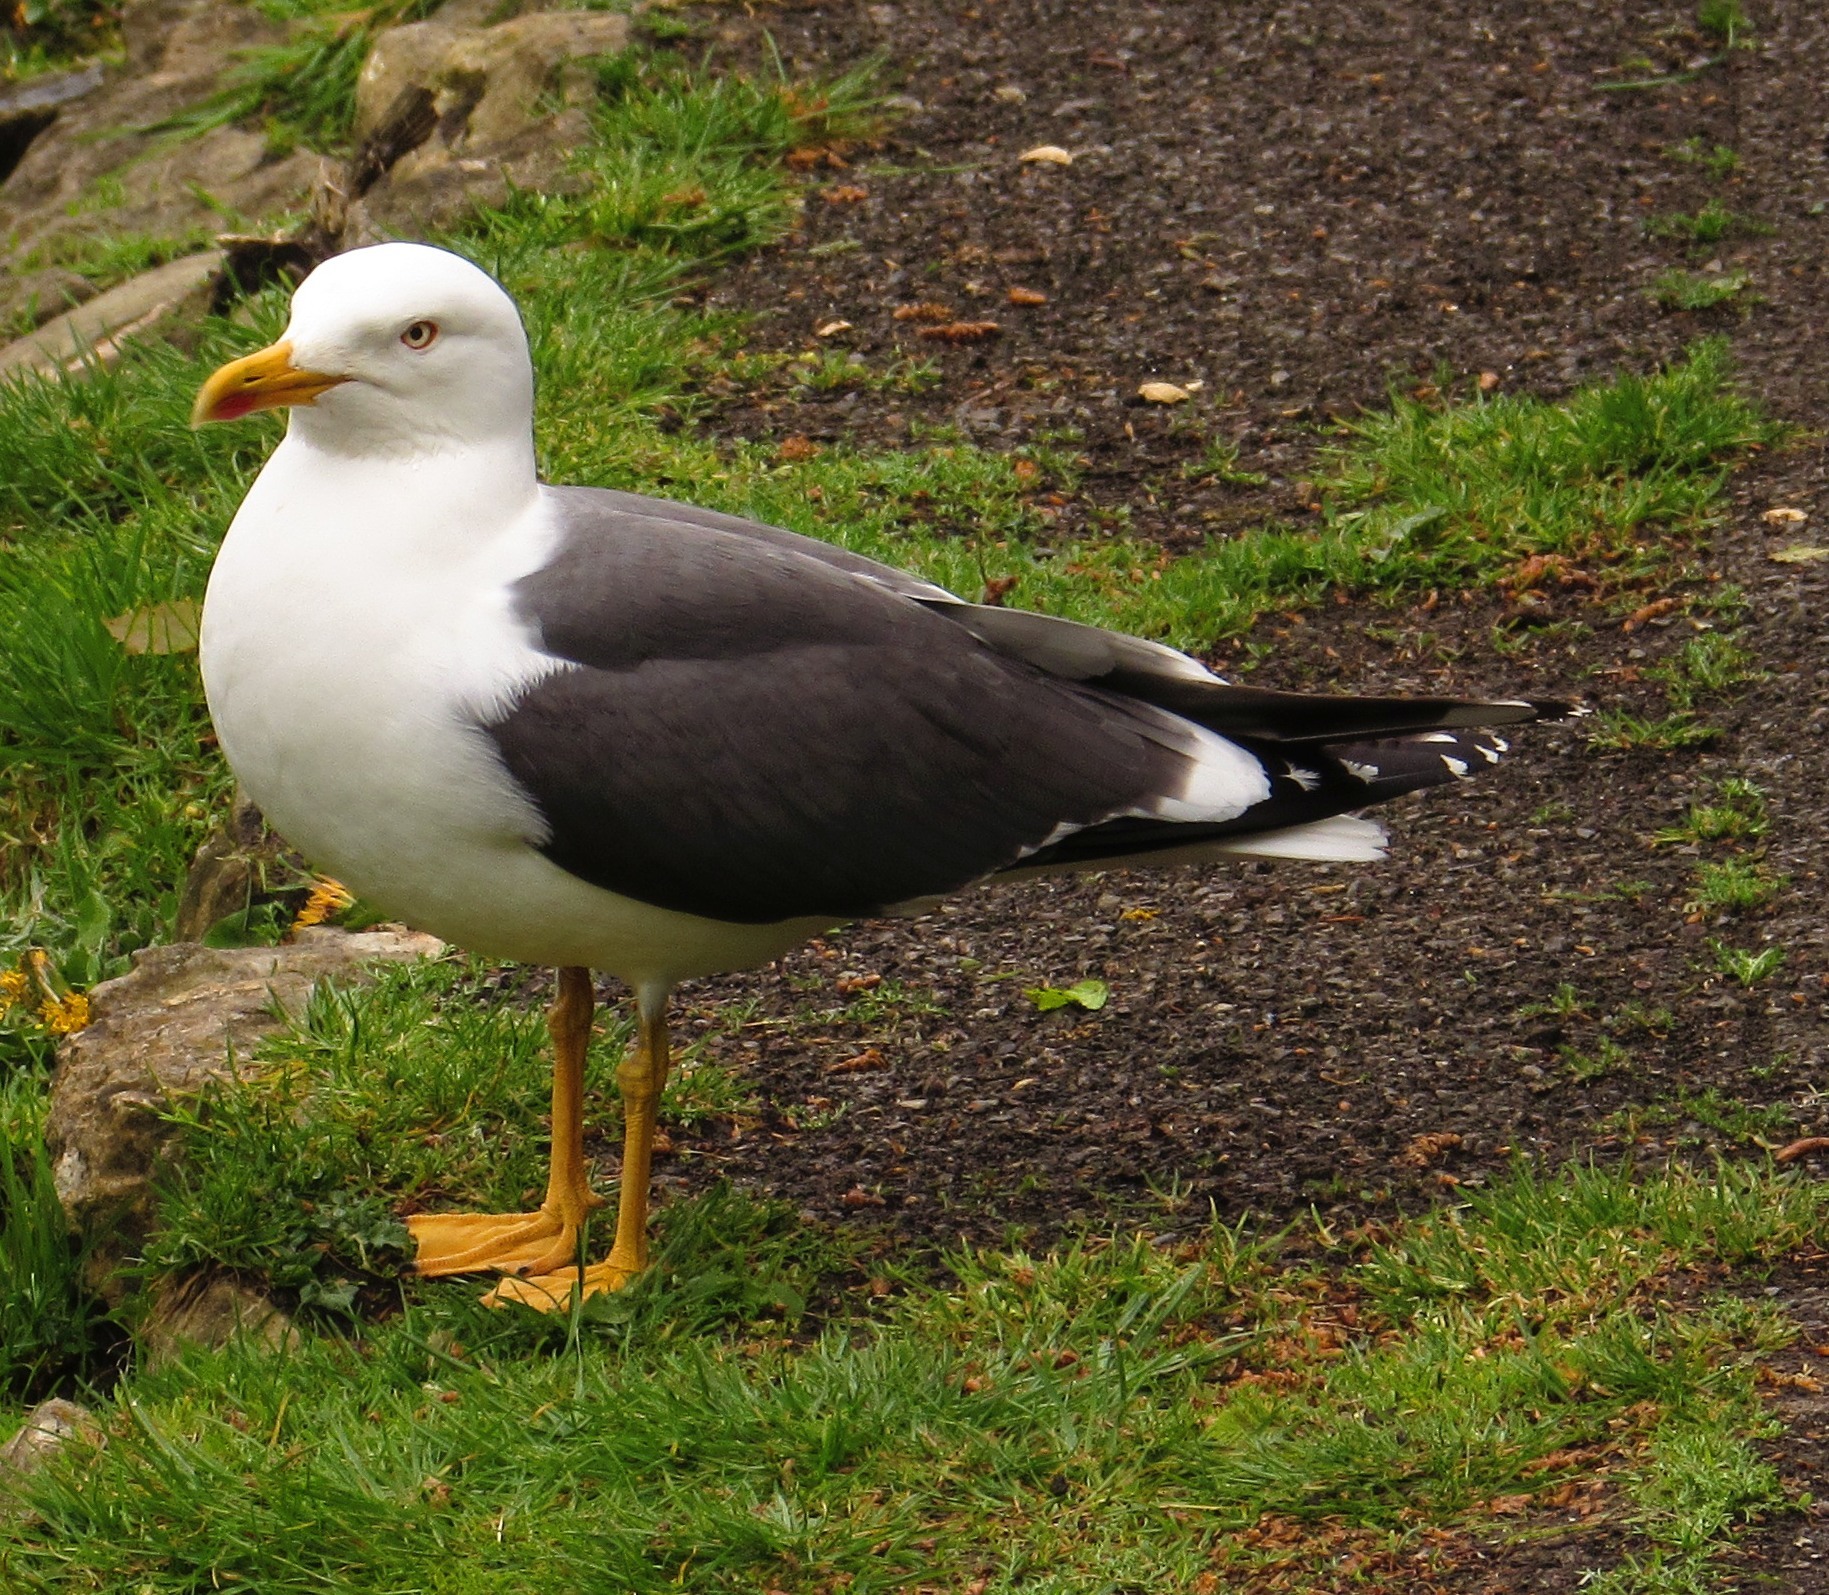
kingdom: Animalia
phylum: Chordata
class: Aves
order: Charadriiformes
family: Laridae
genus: Larus
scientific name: Larus fuscus
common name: Lesser black-backed gull
